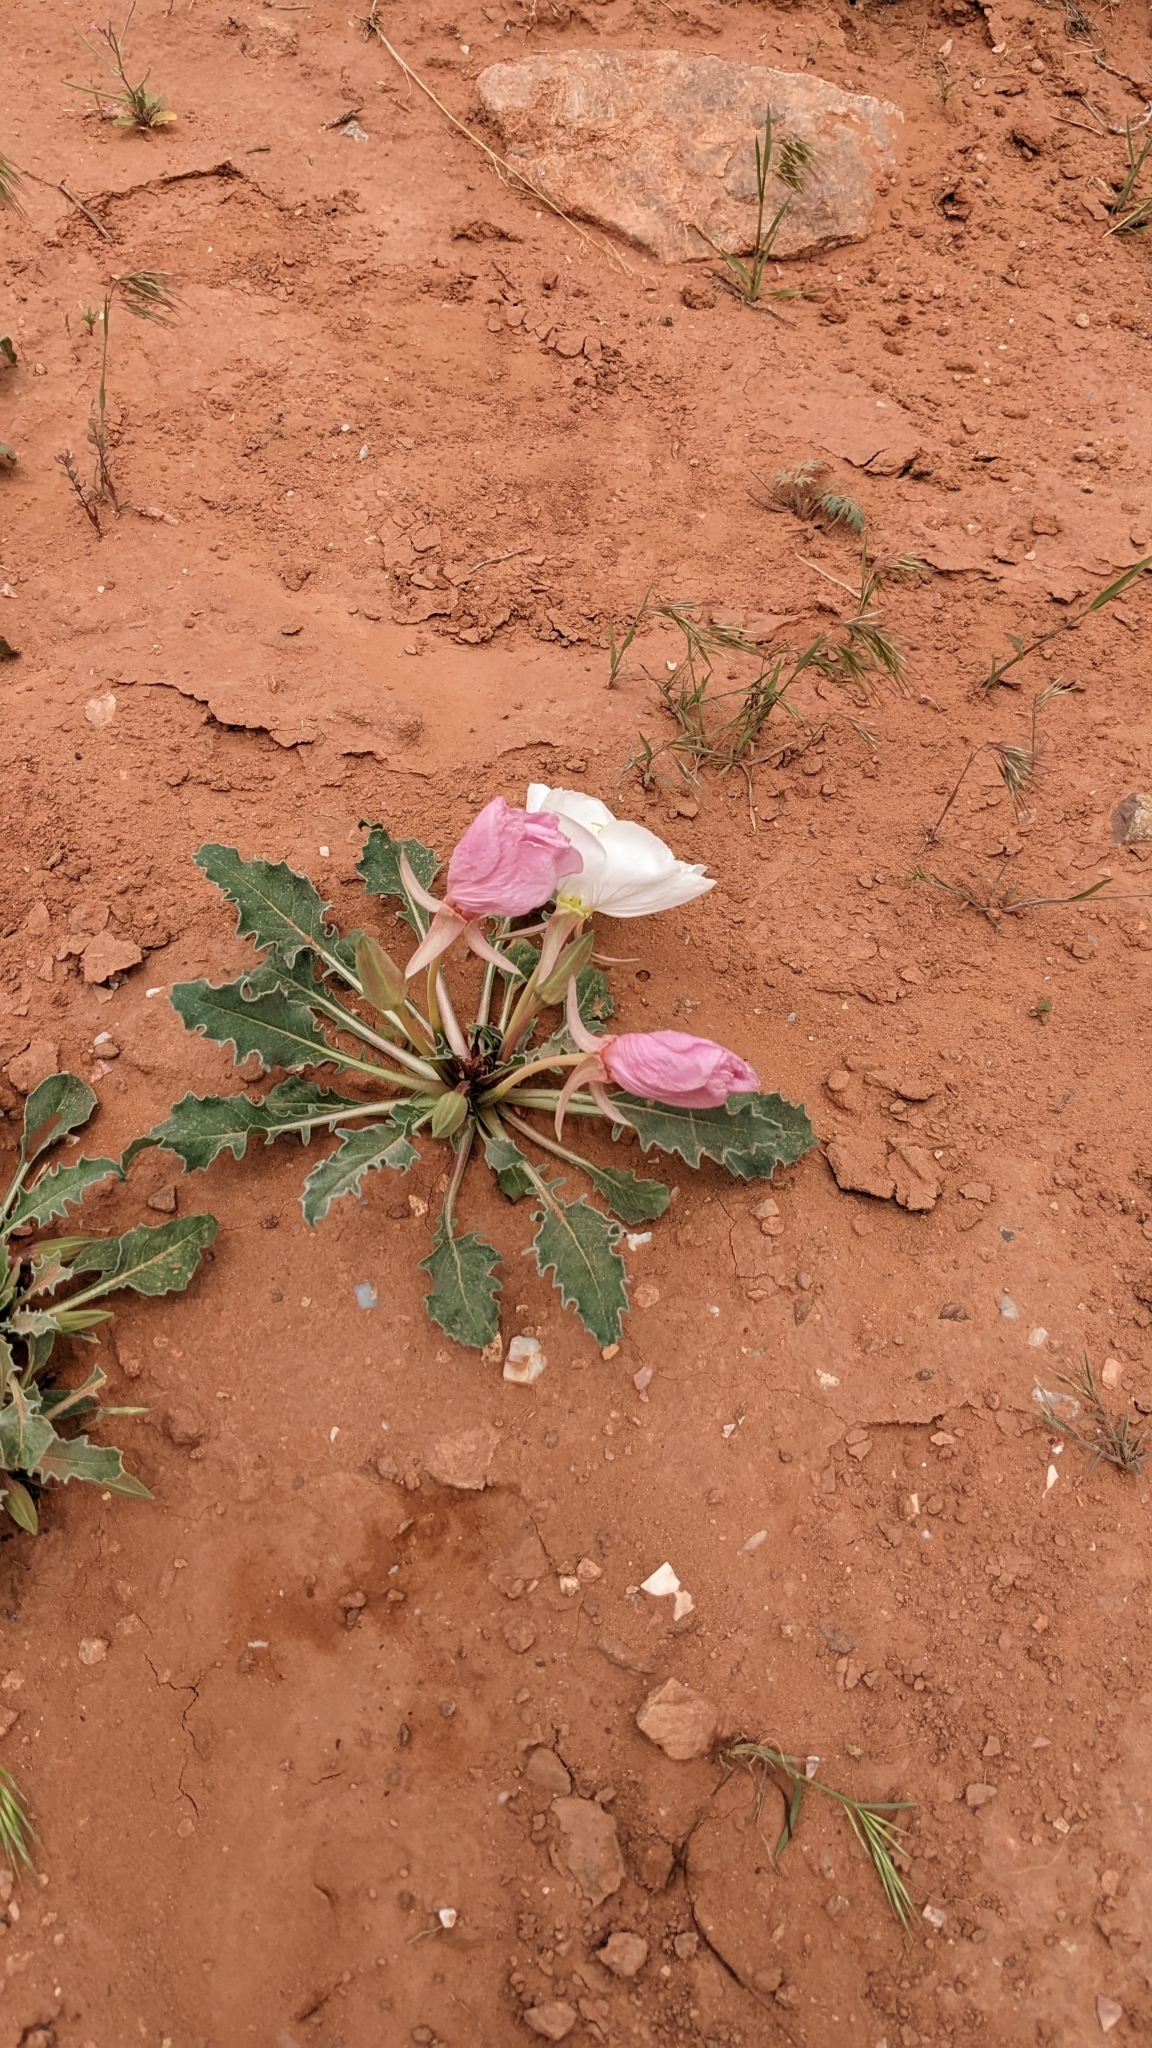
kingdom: Plantae
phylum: Tracheophyta
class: Magnoliopsida
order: Myrtales
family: Onagraceae
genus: Oenothera
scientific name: Oenothera cespitosa
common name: Tufted evening-primrose
